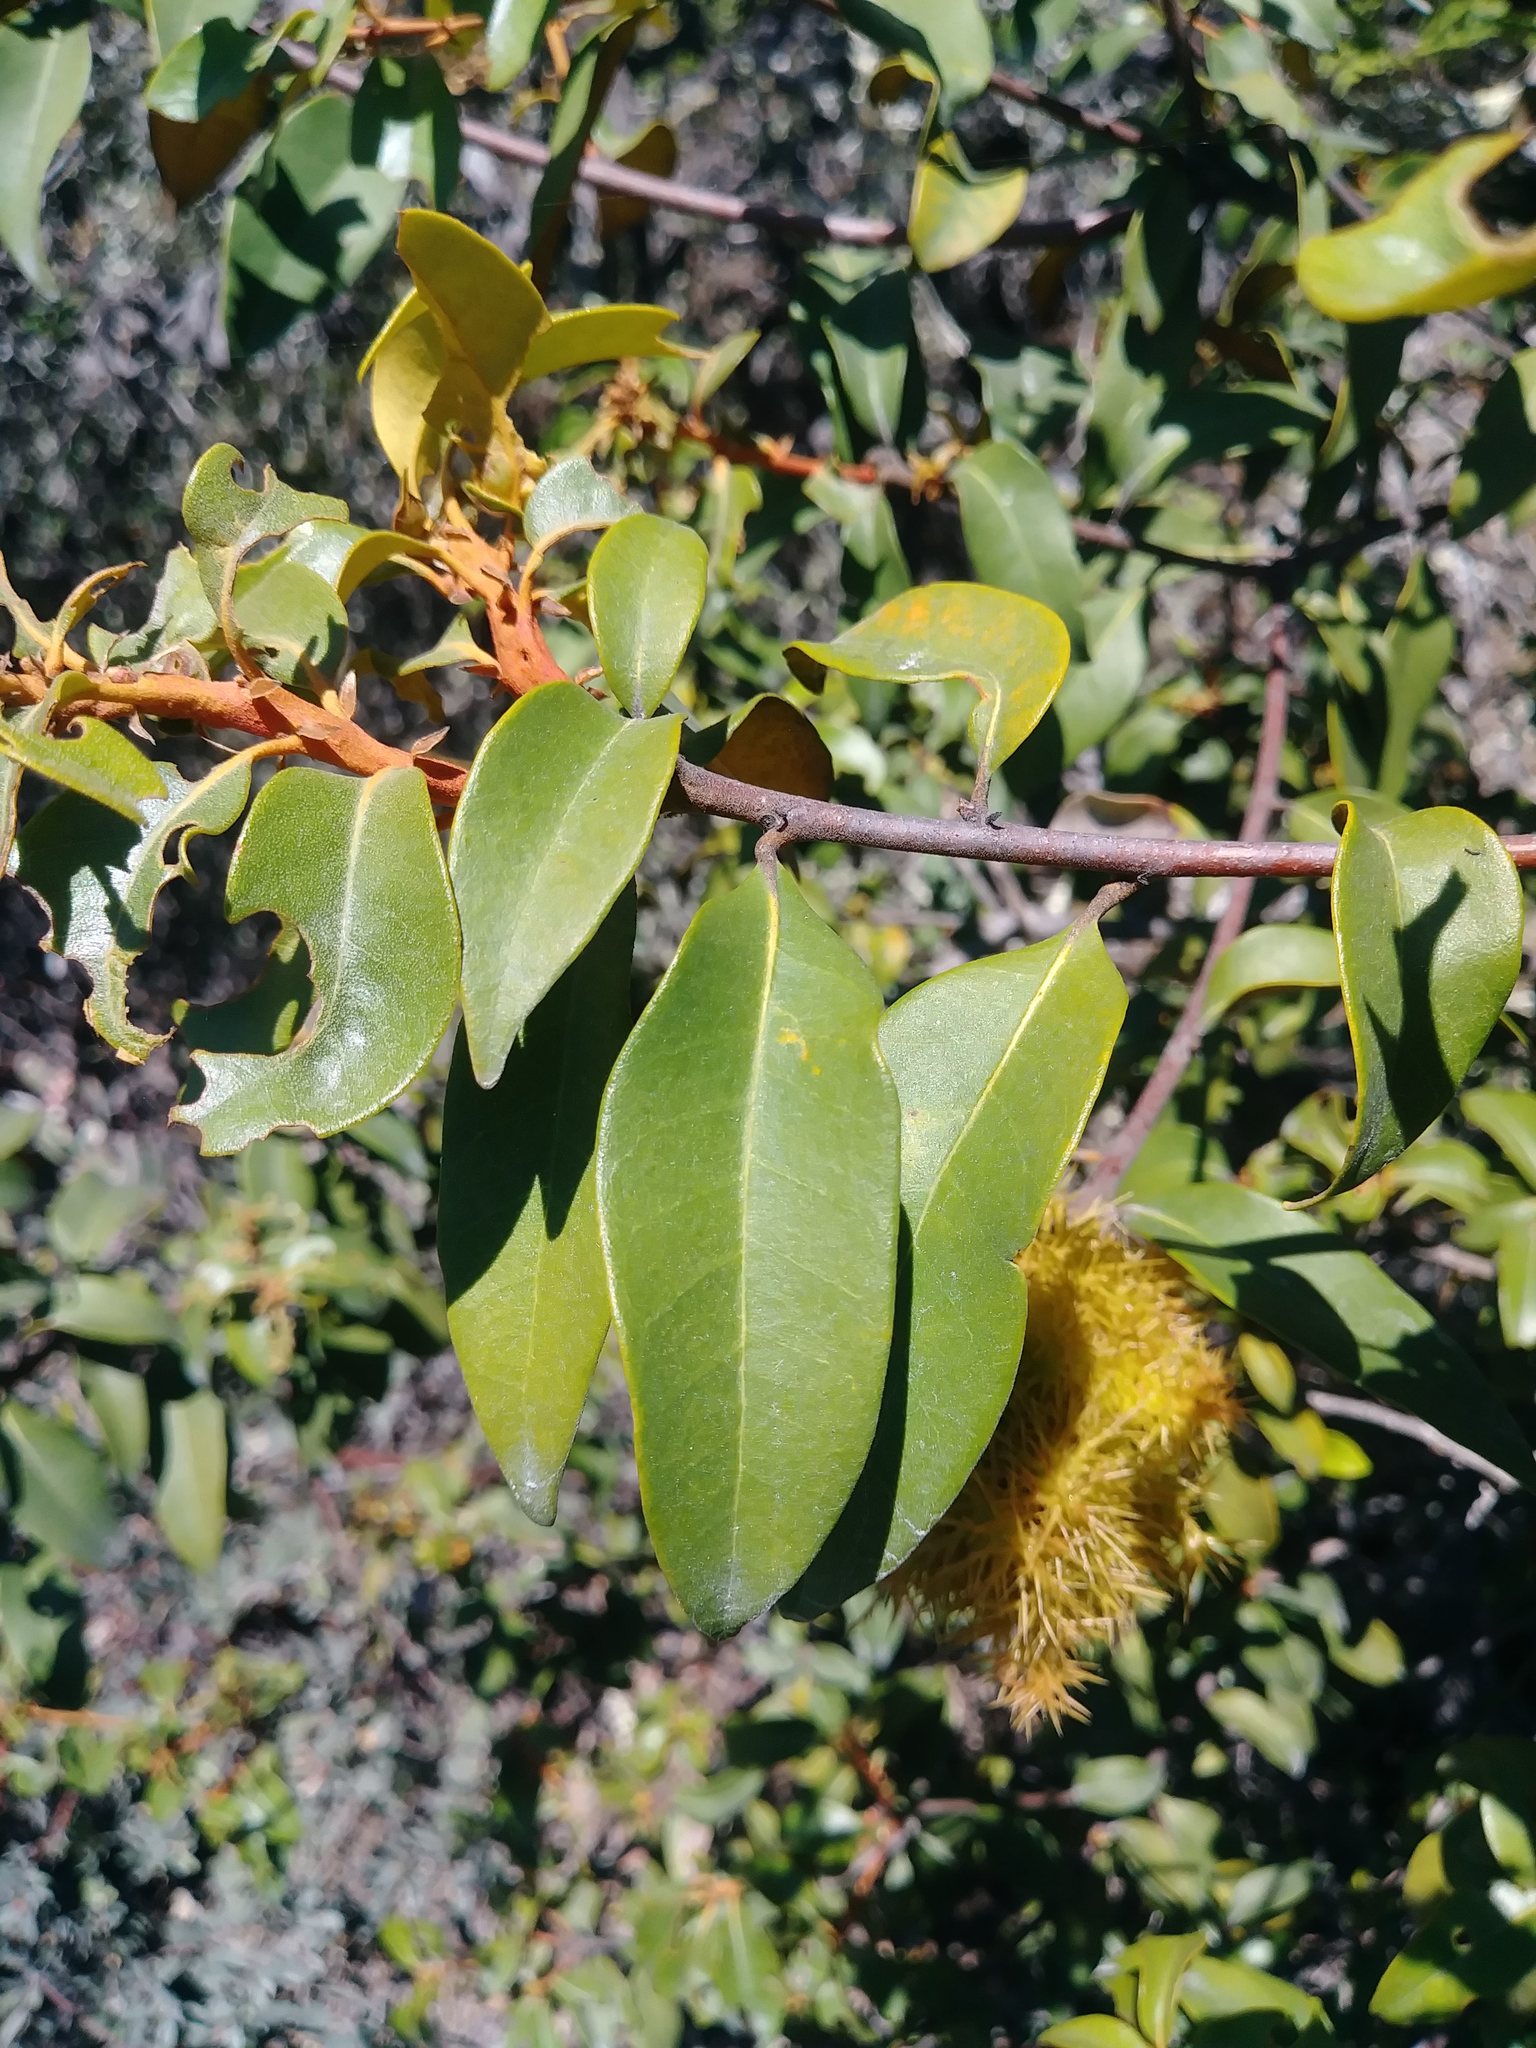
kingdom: Plantae
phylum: Tracheophyta
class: Magnoliopsida
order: Fagales
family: Fagaceae
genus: Chrysolepis
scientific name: Chrysolepis chrysophylla
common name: Giant chinquapin
